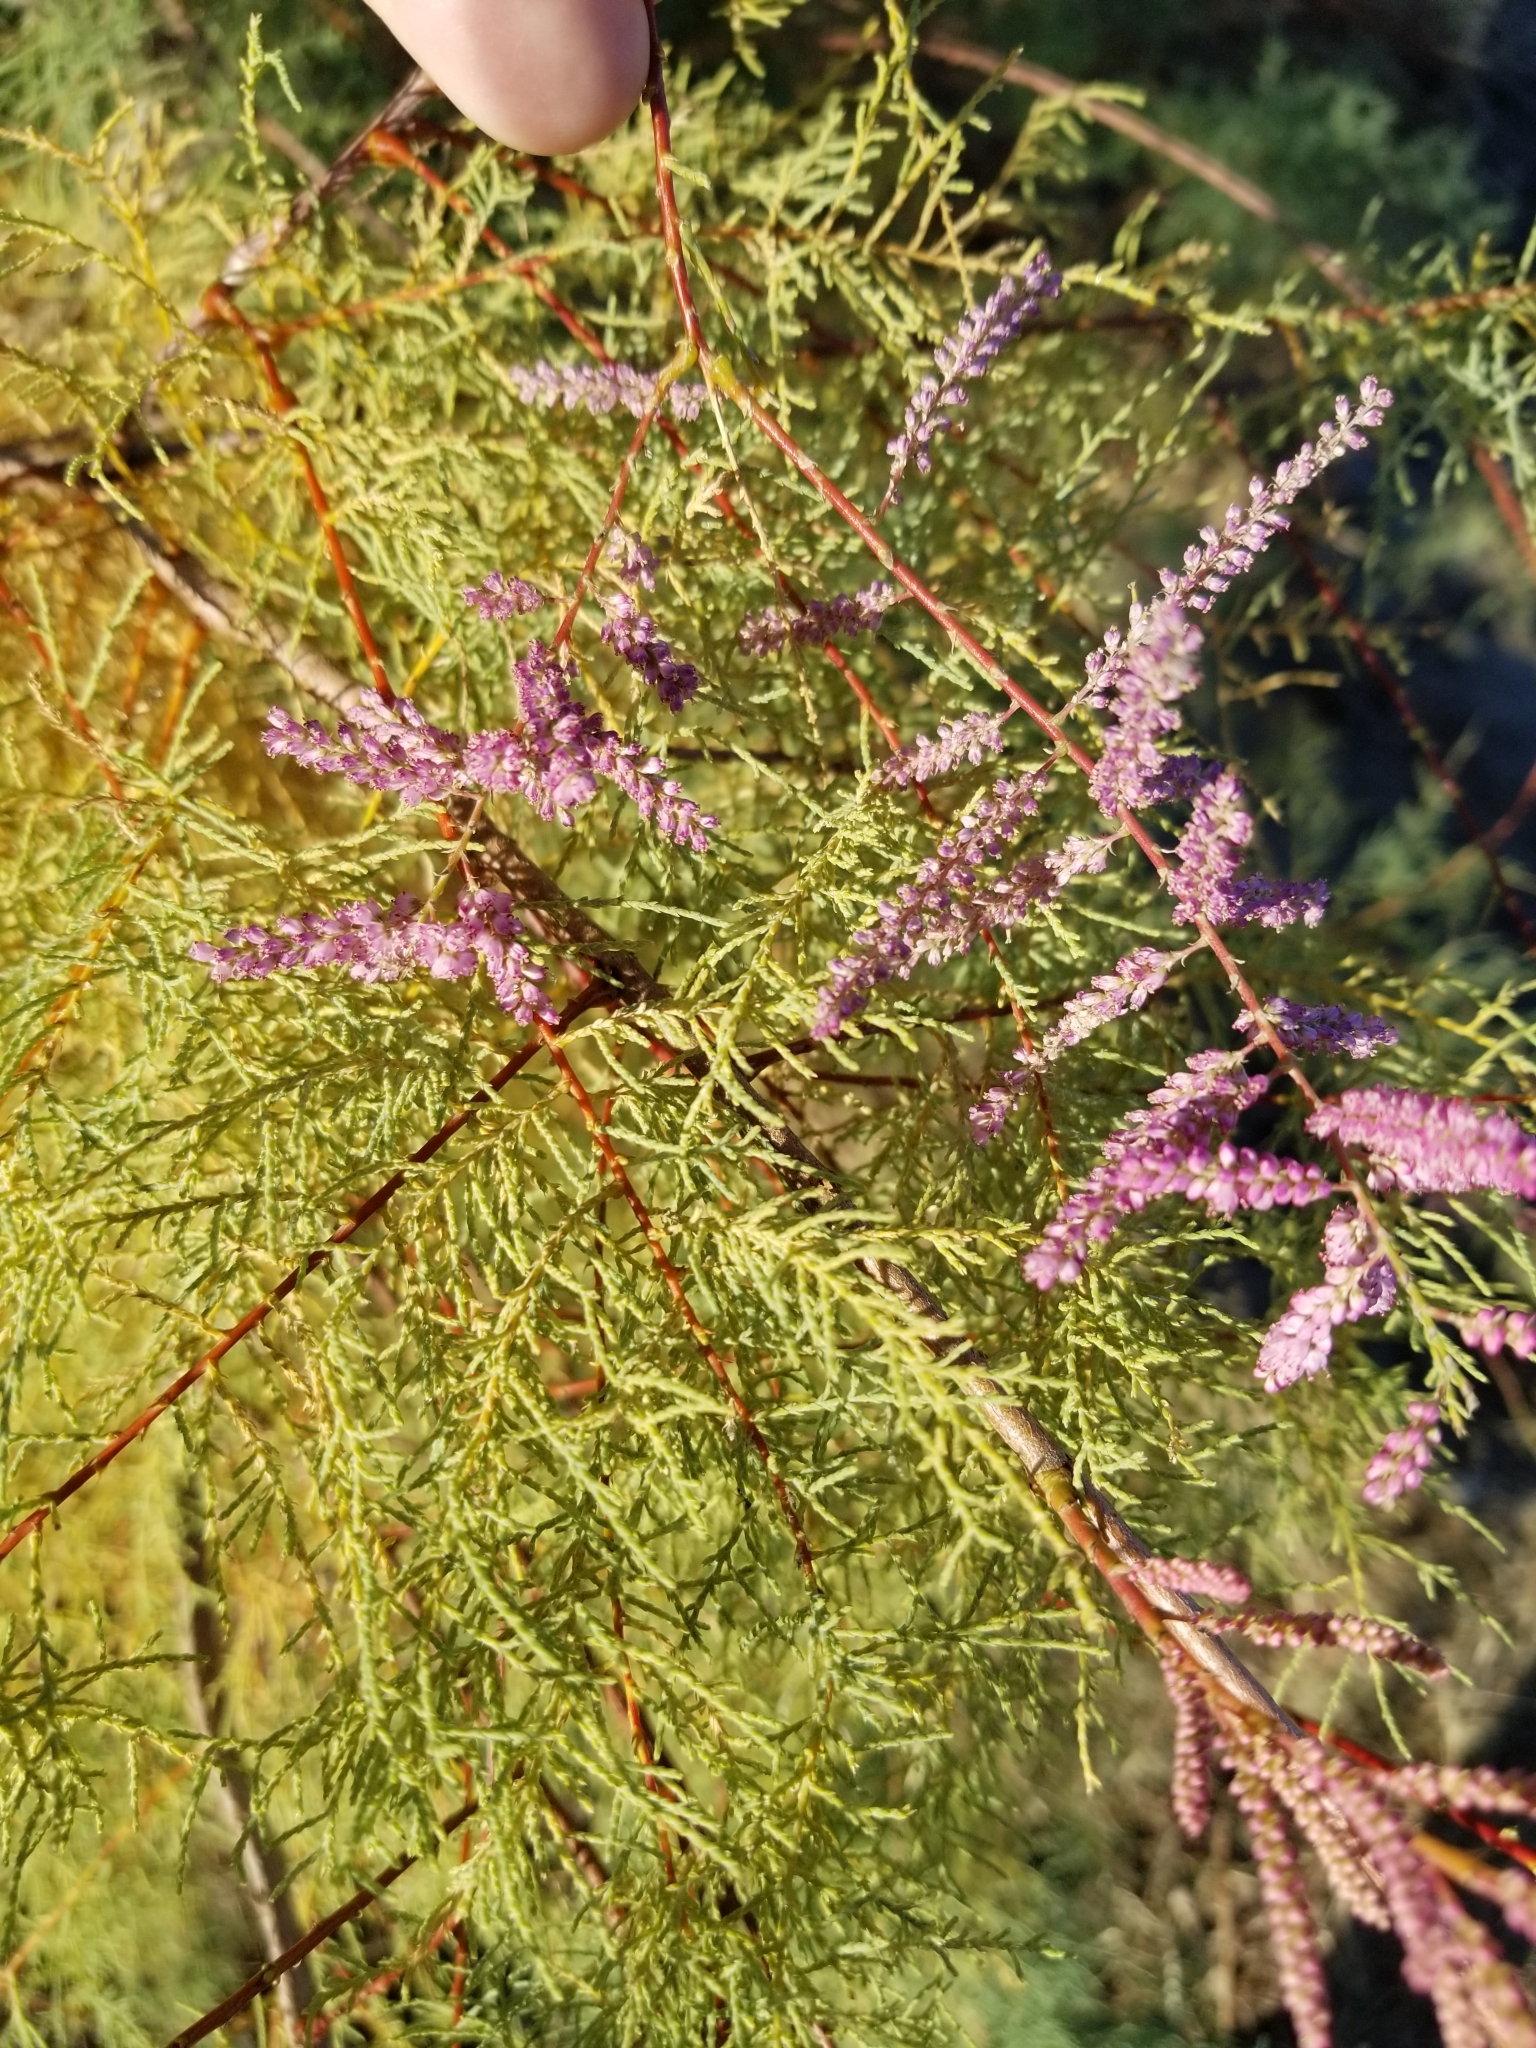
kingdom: Plantae
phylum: Tracheophyta
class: Magnoliopsida
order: Caryophyllales
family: Tamaricaceae
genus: Tamarix
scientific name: Tamarix ramosissima
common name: Pink tamarisk
